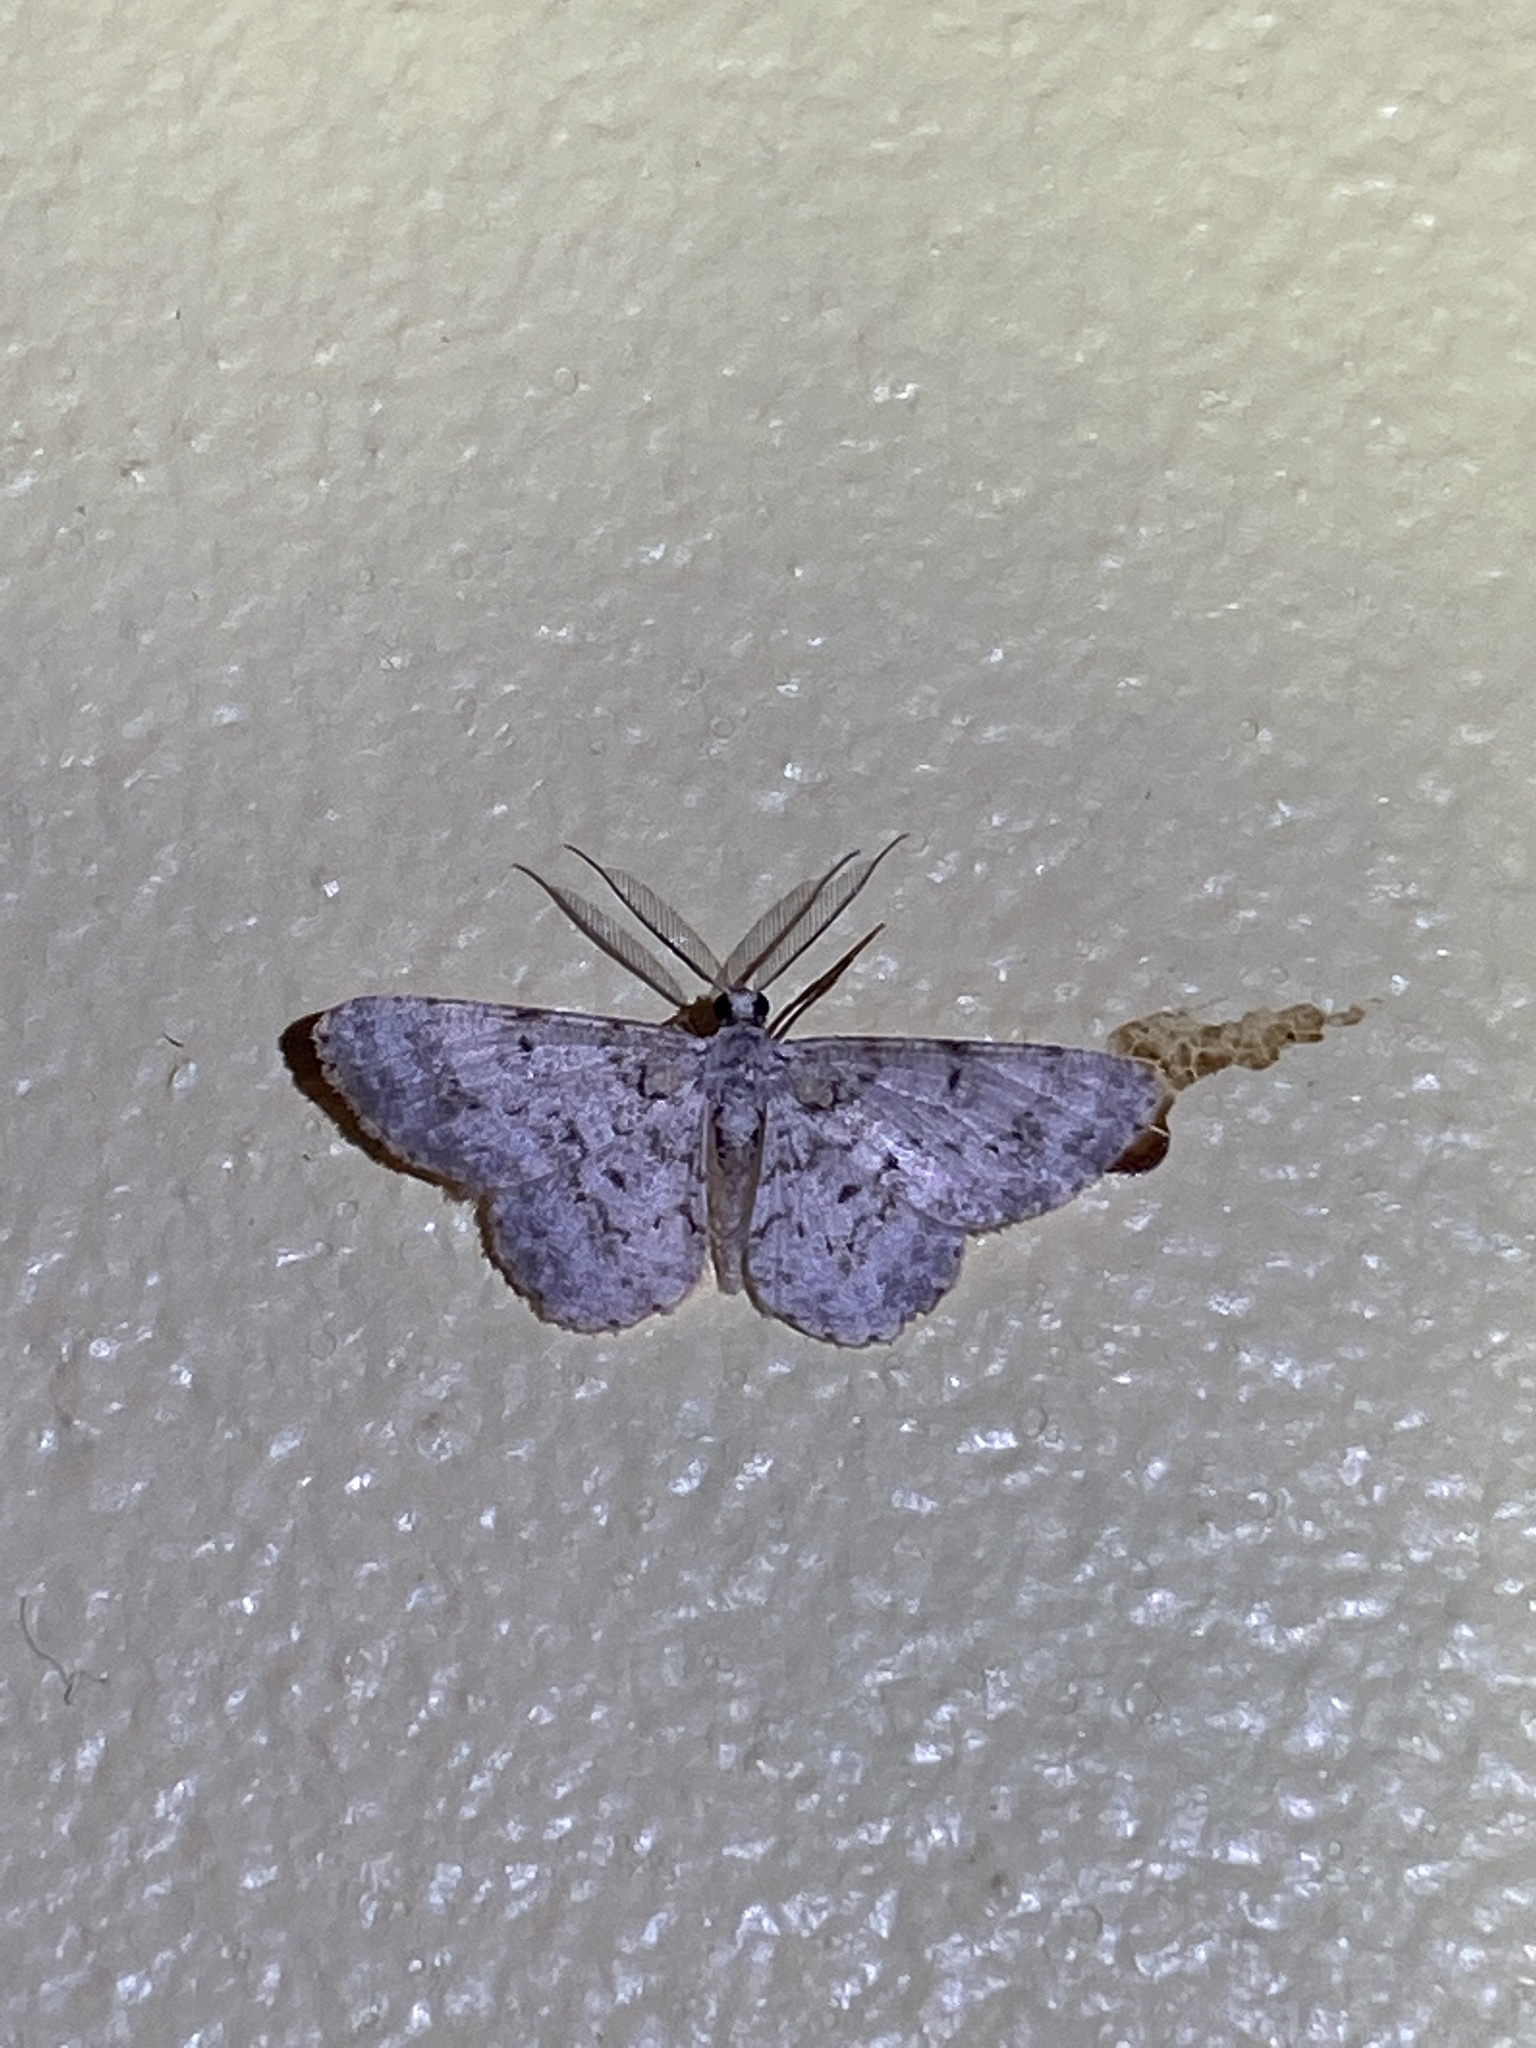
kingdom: Animalia
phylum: Arthropoda
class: Insecta
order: Lepidoptera
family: Geometridae
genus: Physocleora
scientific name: Physocleora pauper
